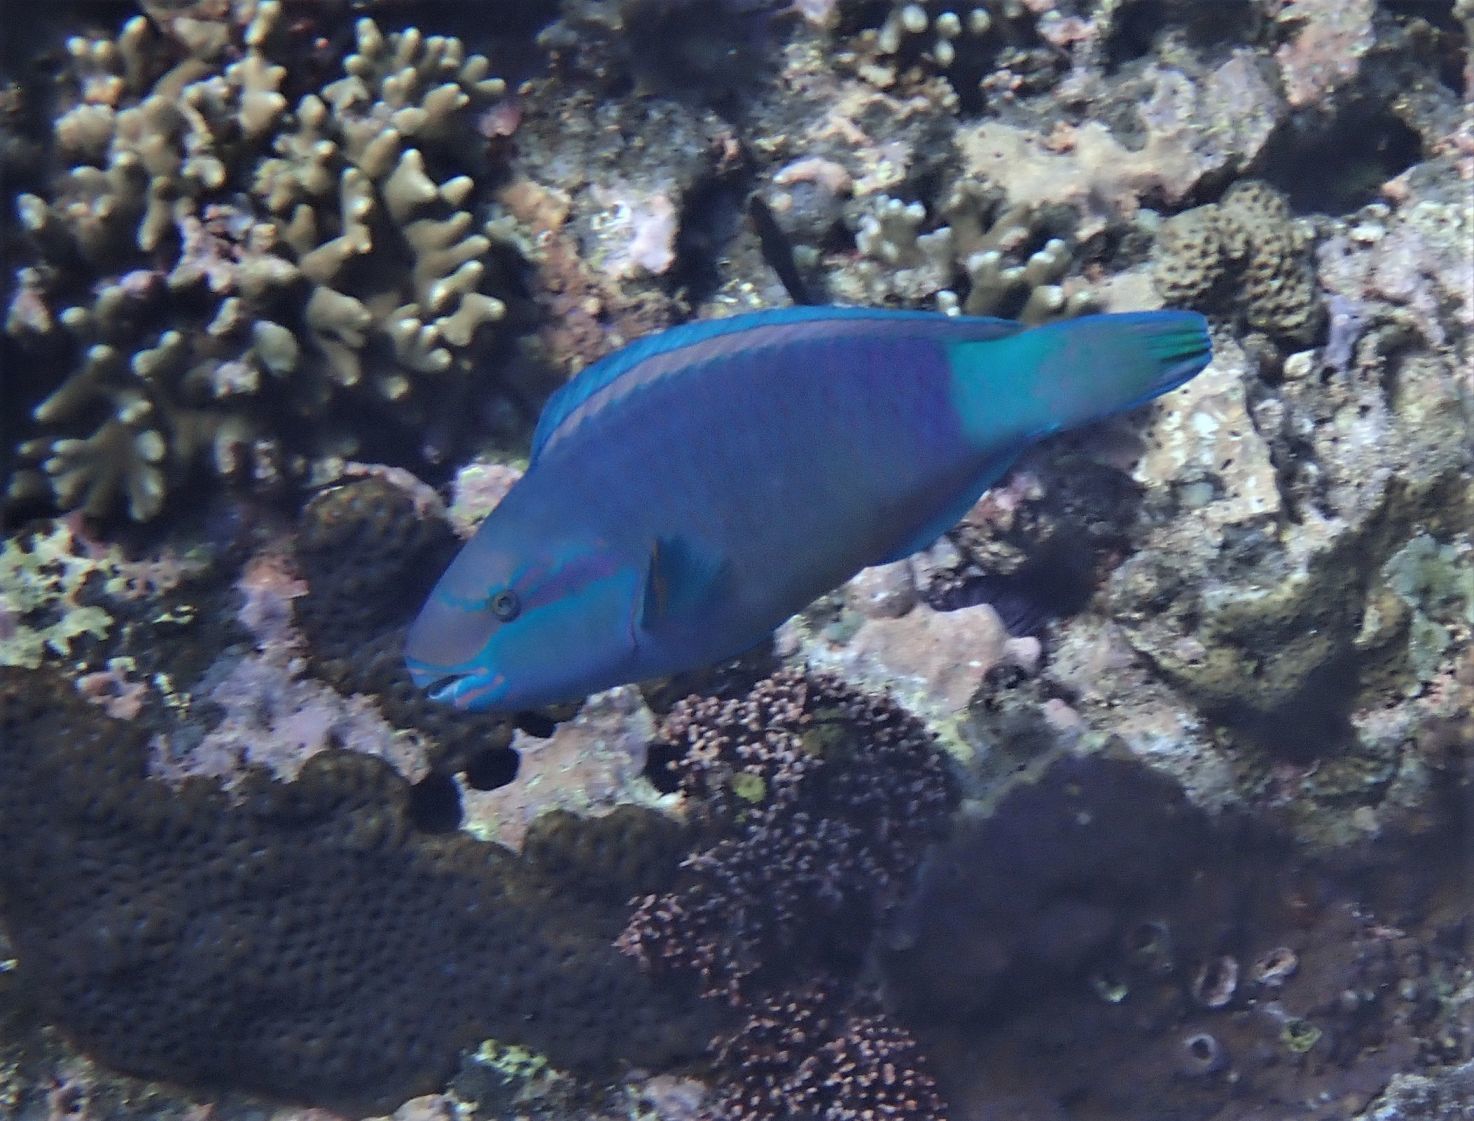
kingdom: Animalia
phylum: Chordata
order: Perciformes
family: Scaridae
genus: Chlorurus
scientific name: Chlorurus sordidus
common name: Bullethead parrotfish
